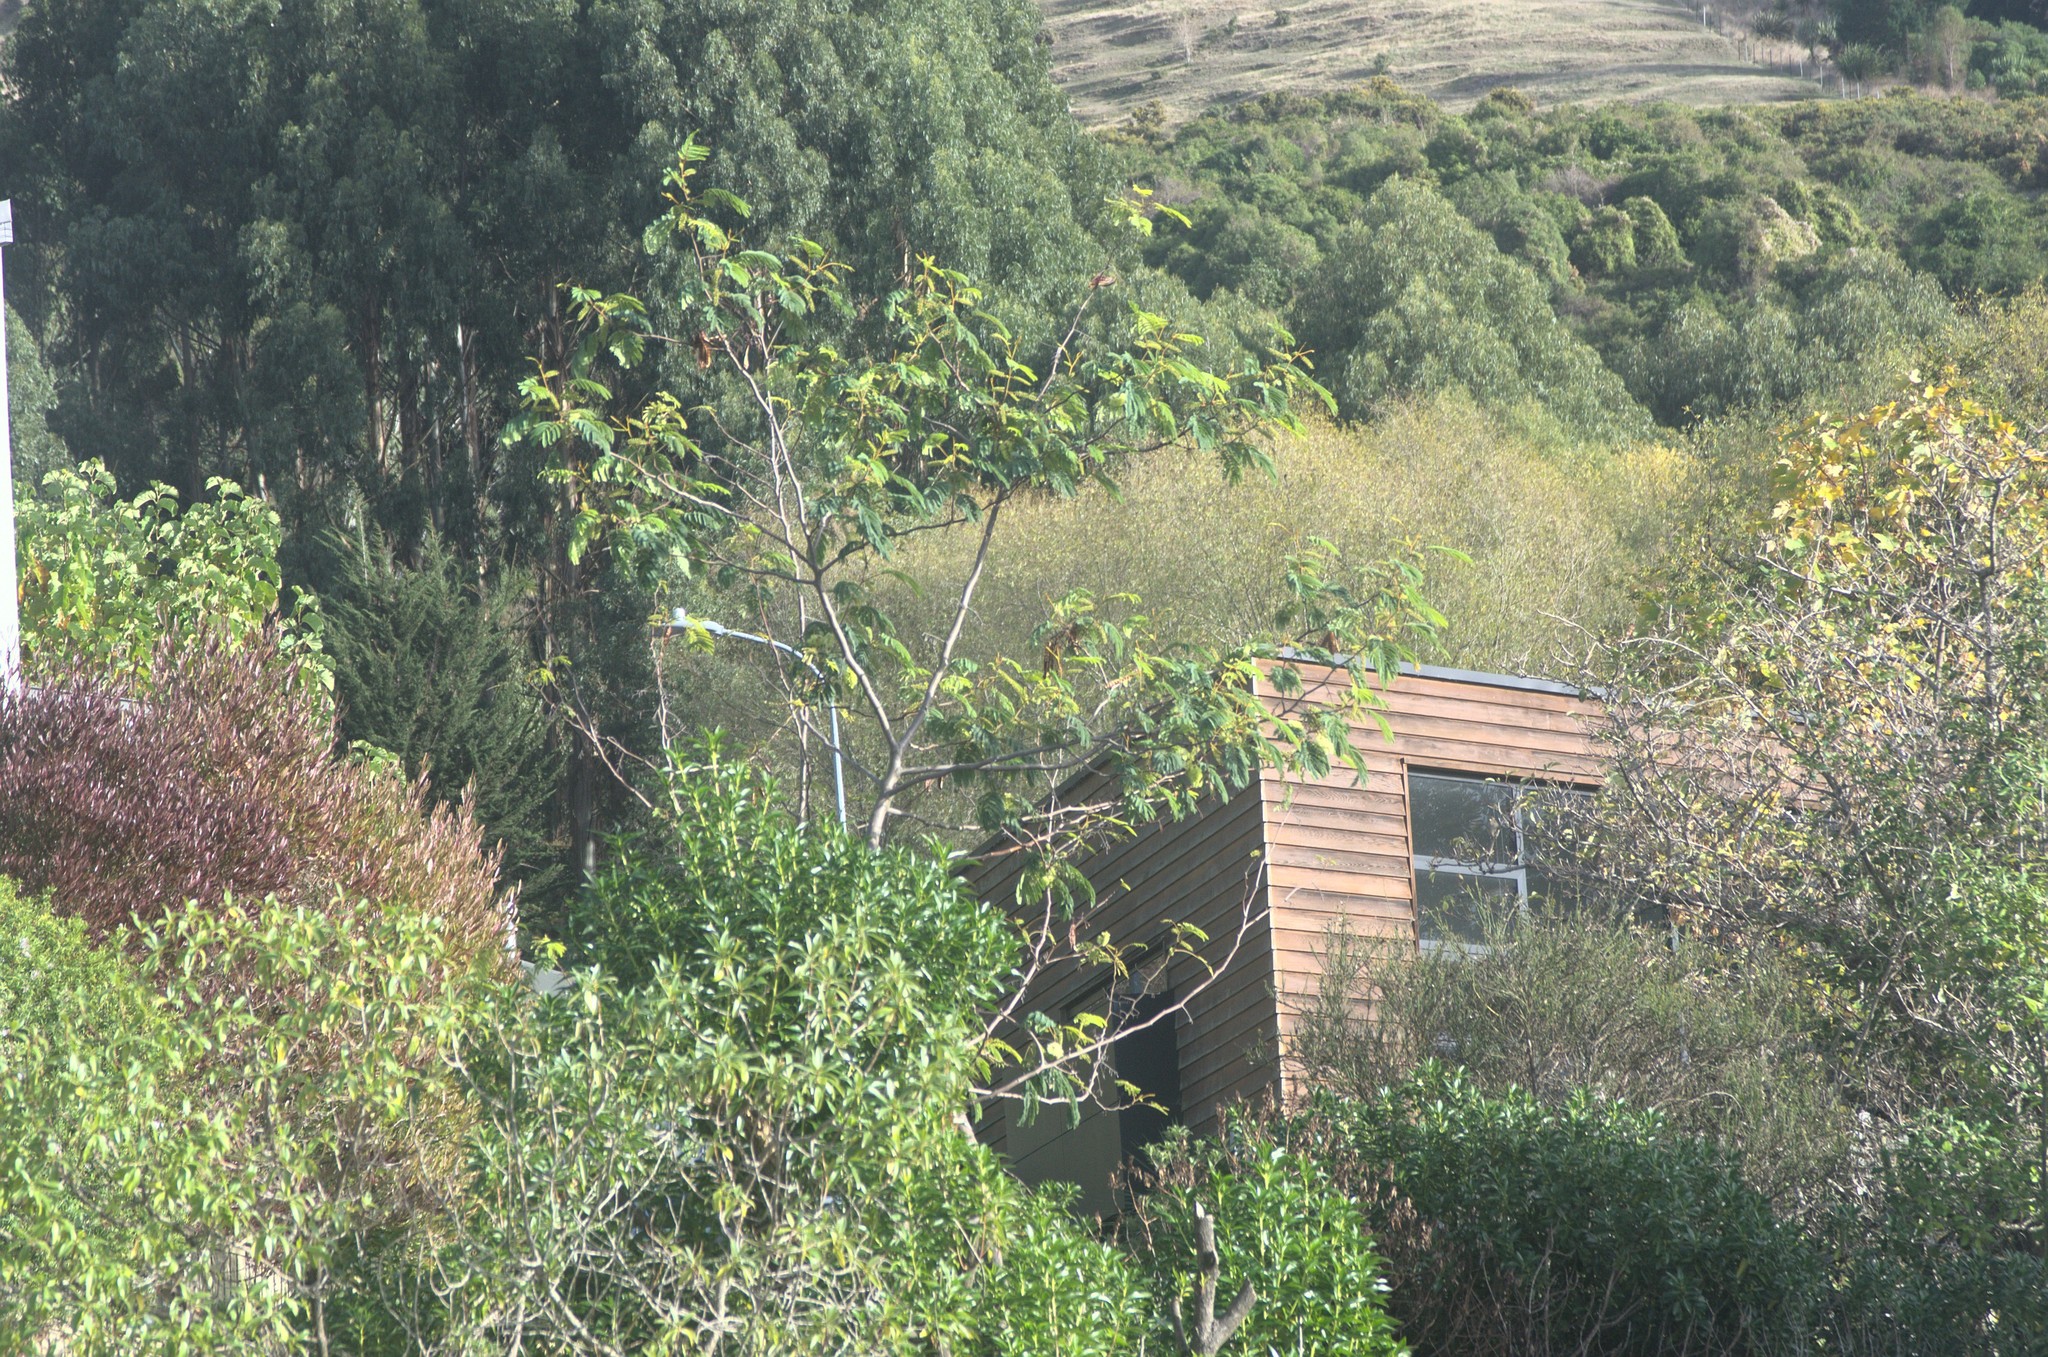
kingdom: Plantae
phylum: Tracheophyta
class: Magnoliopsida
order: Fabales
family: Fabaceae
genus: Paraserianthes
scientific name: Paraserianthes lophantha
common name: Plume albizia
